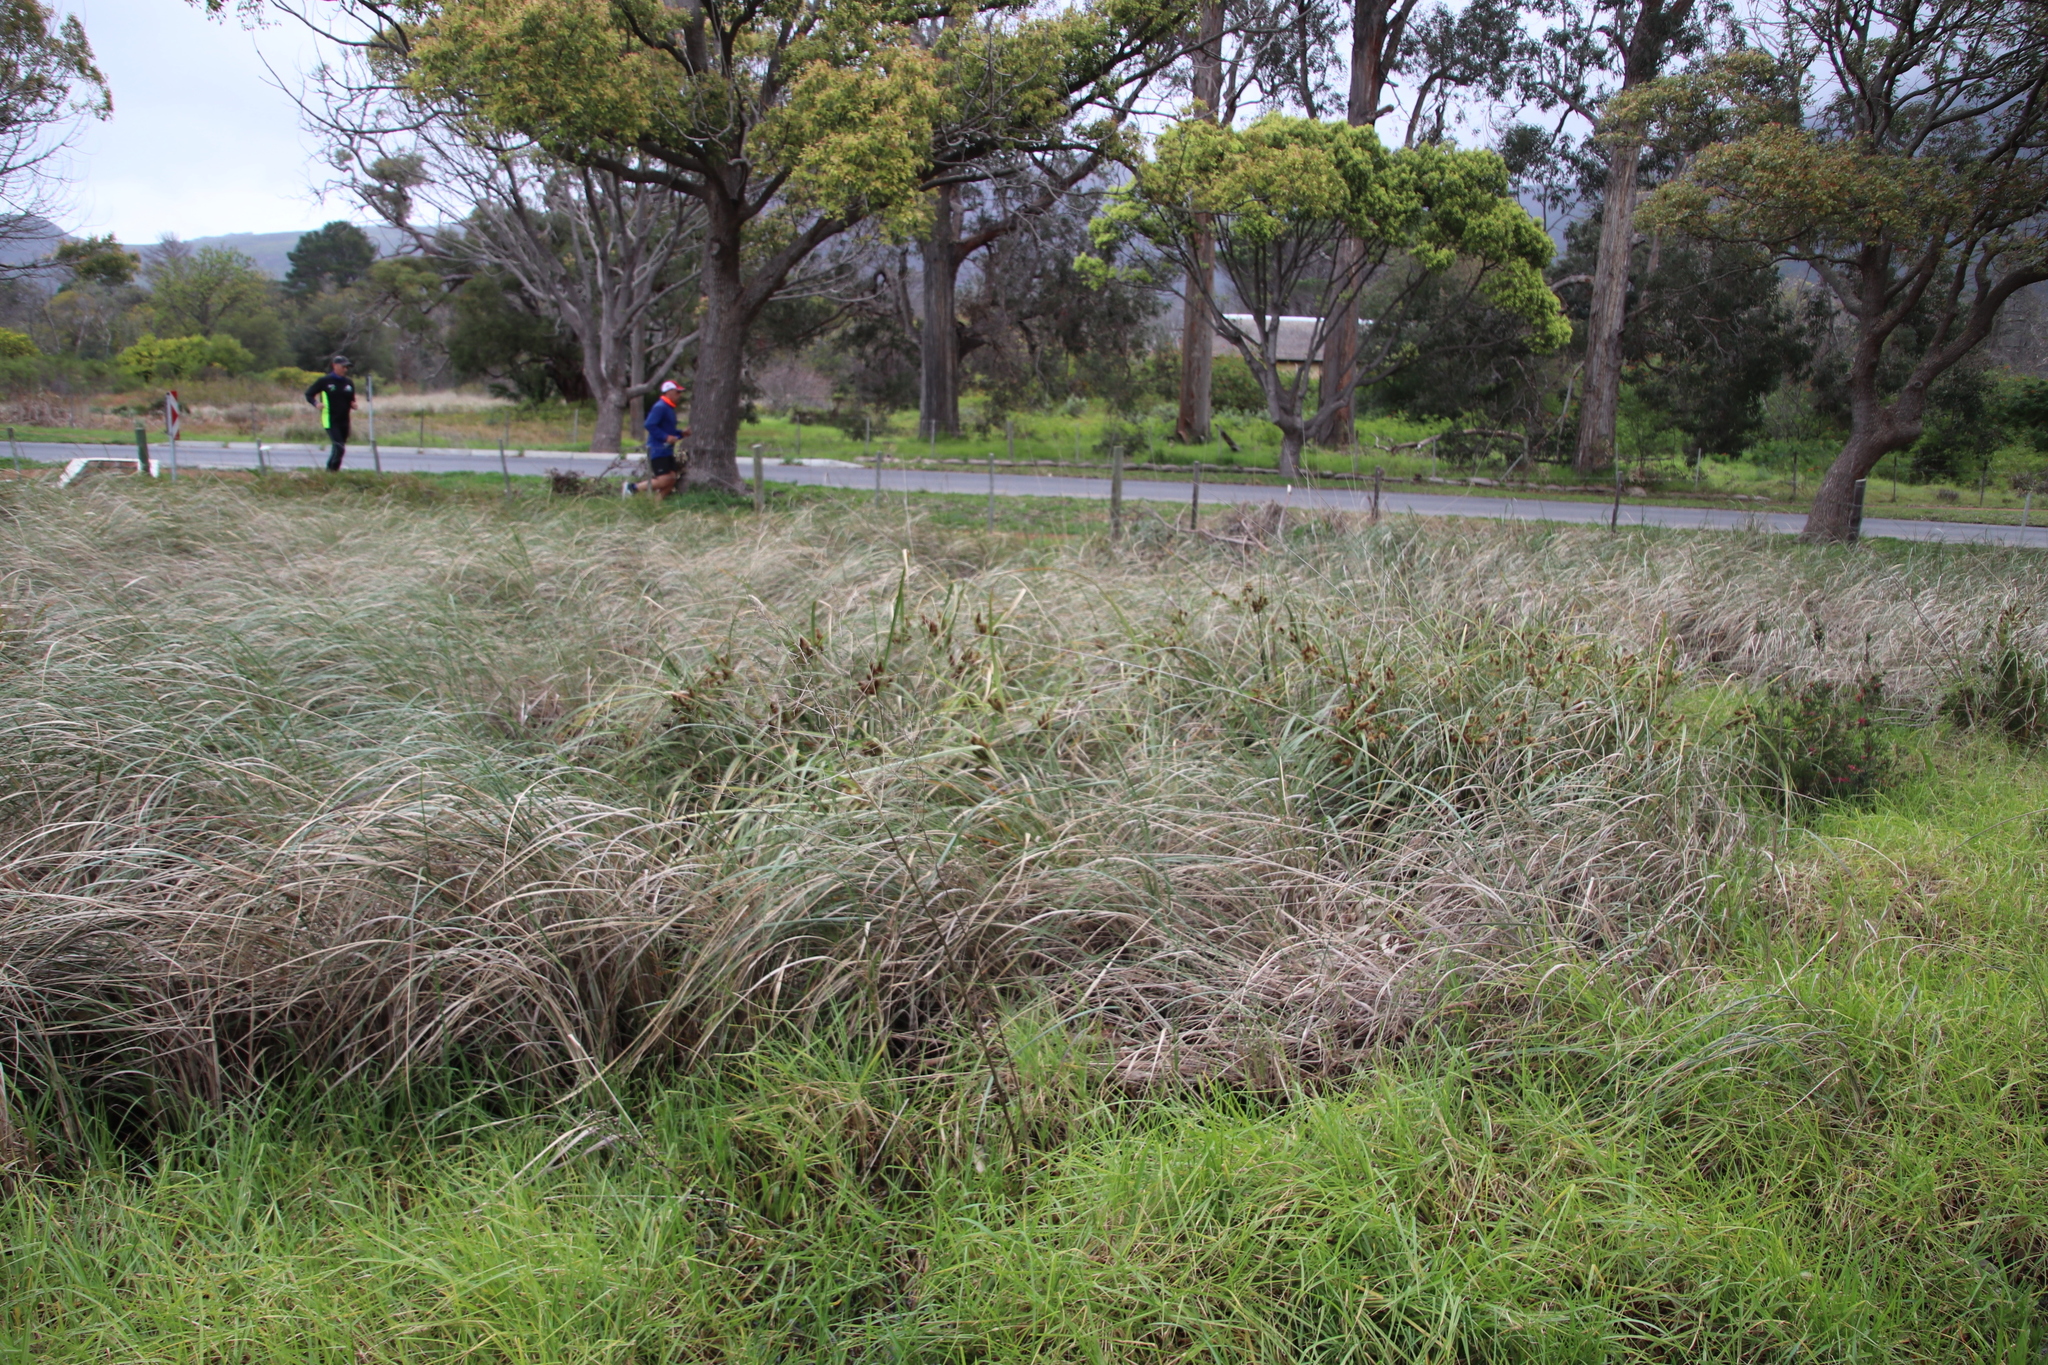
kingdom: Plantae
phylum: Tracheophyta
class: Liliopsida
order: Poales
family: Cyperaceae
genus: Cyperus
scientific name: Cyperus thunbergii
